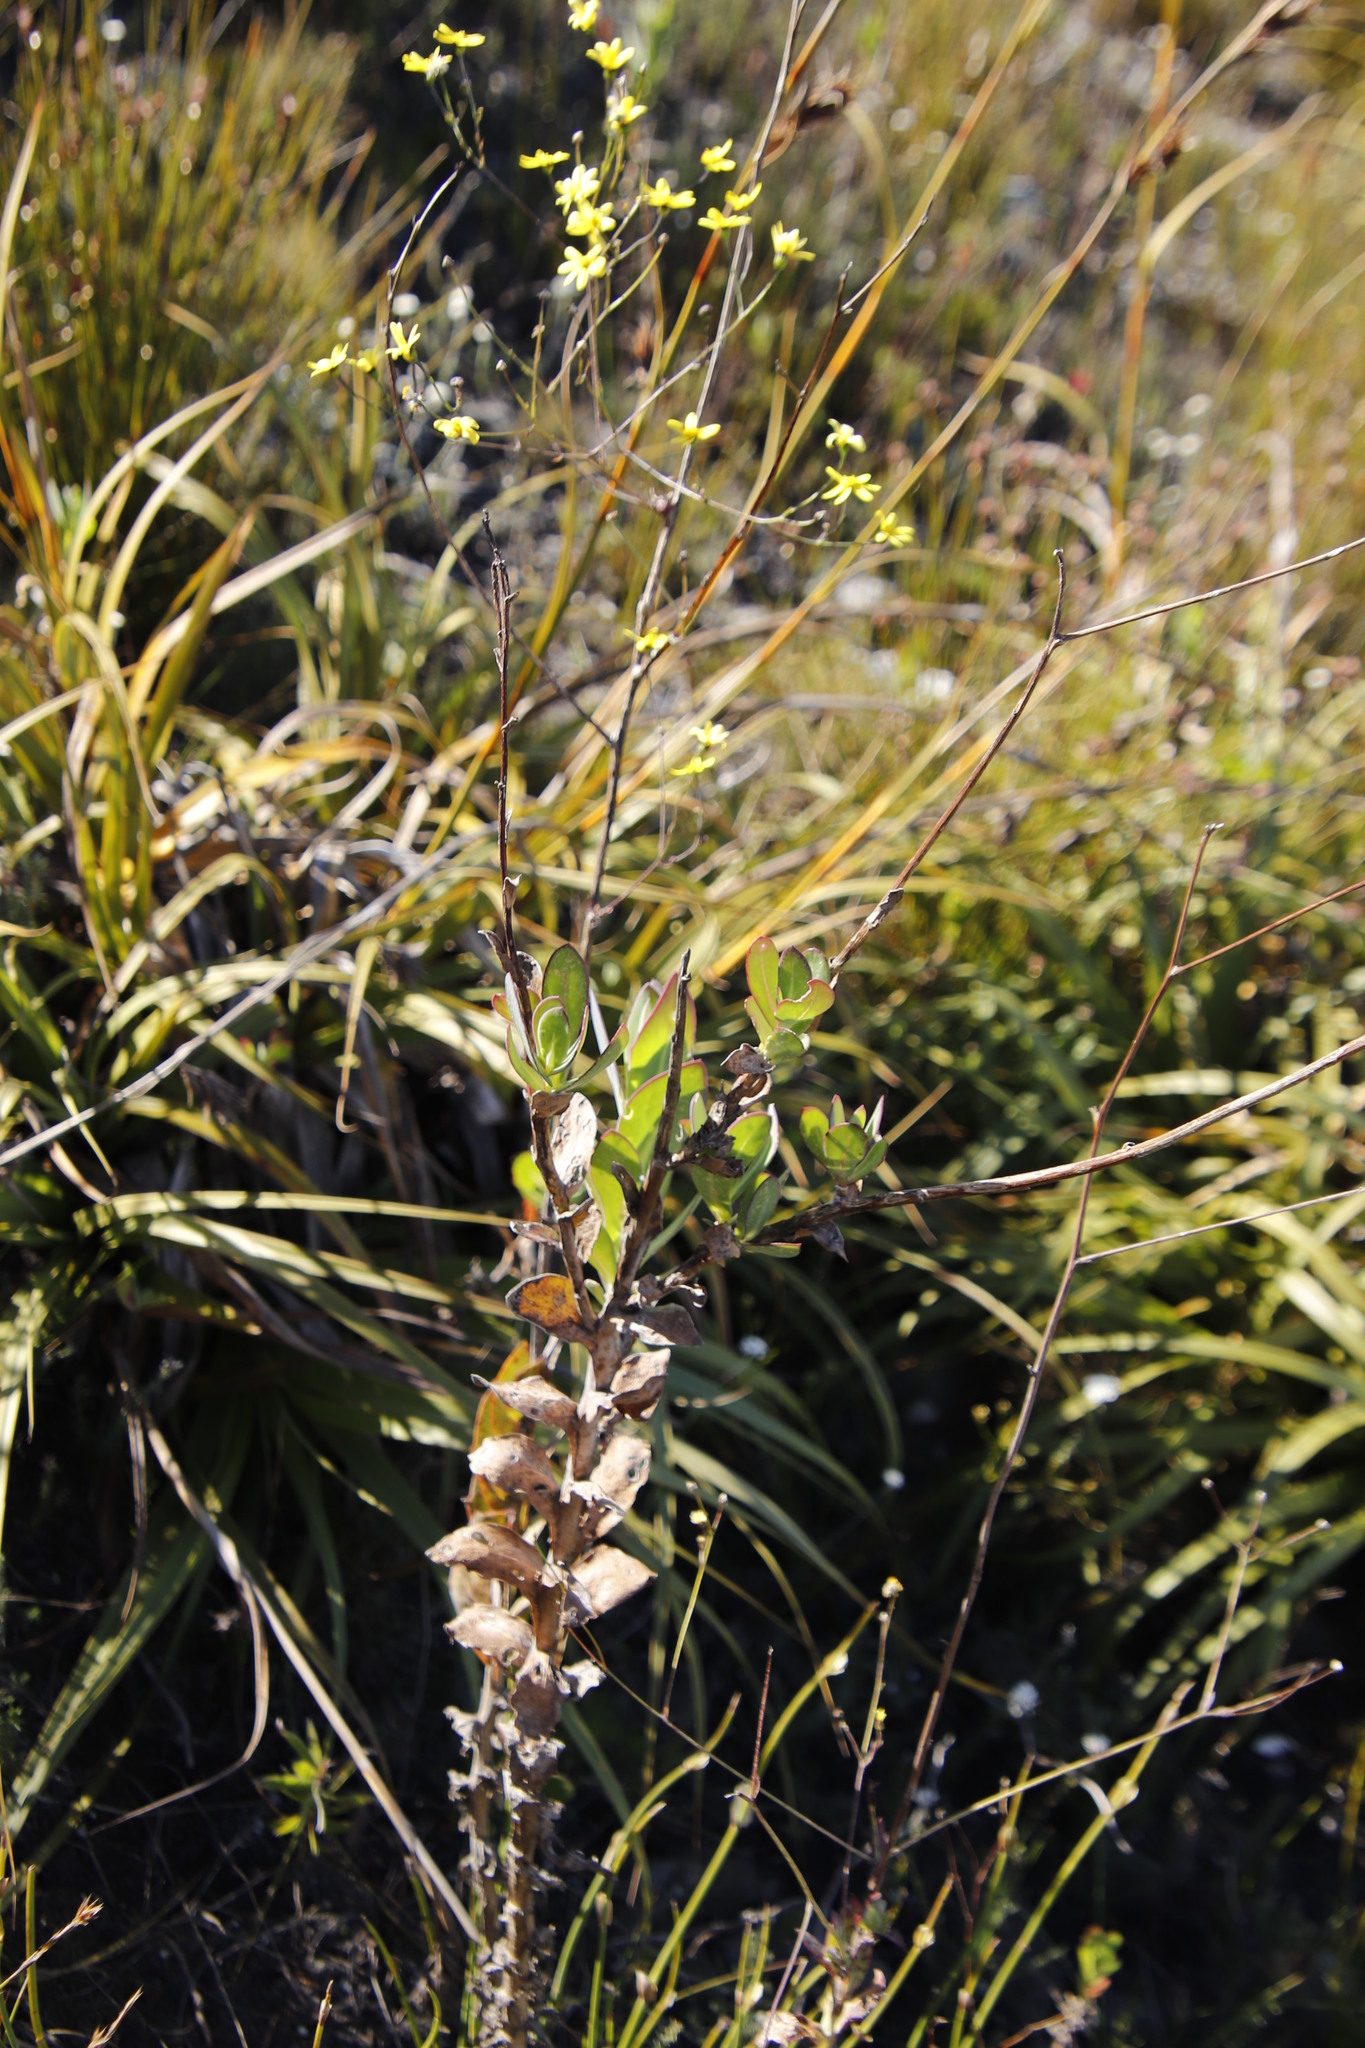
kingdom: Plantae
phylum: Tracheophyta
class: Magnoliopsida
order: Asterales
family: Asteraceae
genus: Othonna
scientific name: Othonna quinquedentata
